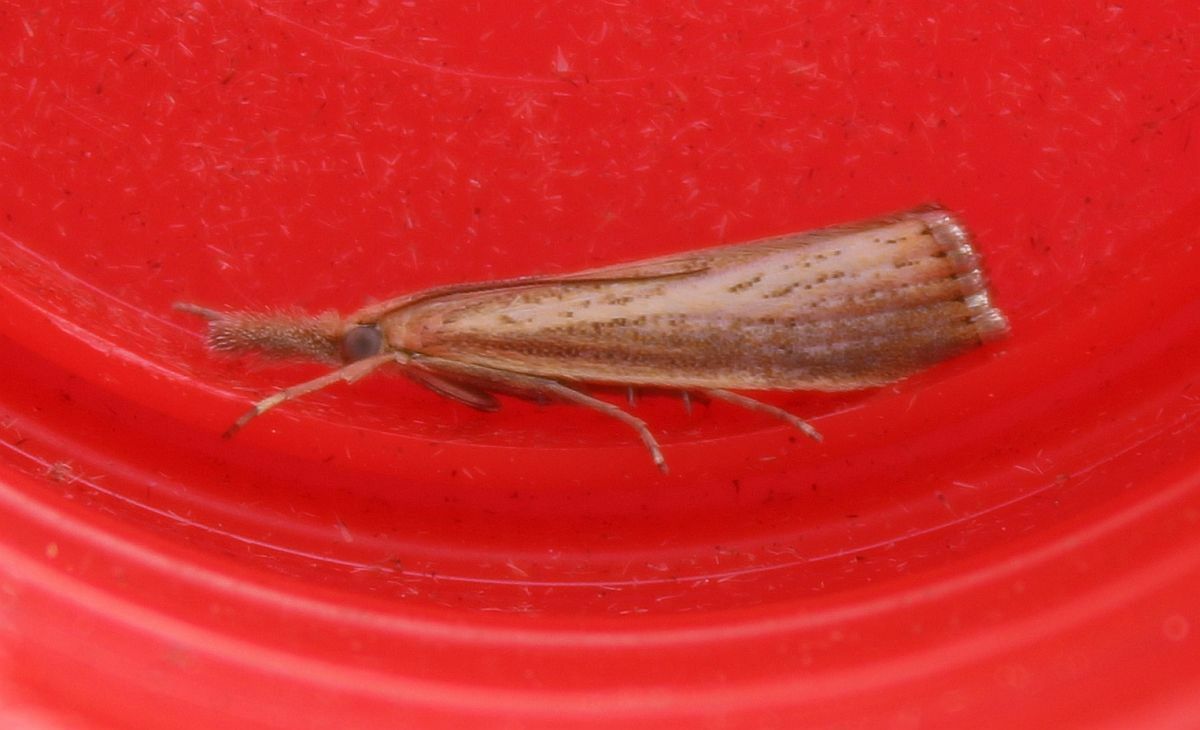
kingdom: Animalia
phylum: Arthropoda
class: Insecta
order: Lepidoptera
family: Crambidae
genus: Agriphila
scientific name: Agriphila straminella
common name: Straw grass-veneer
